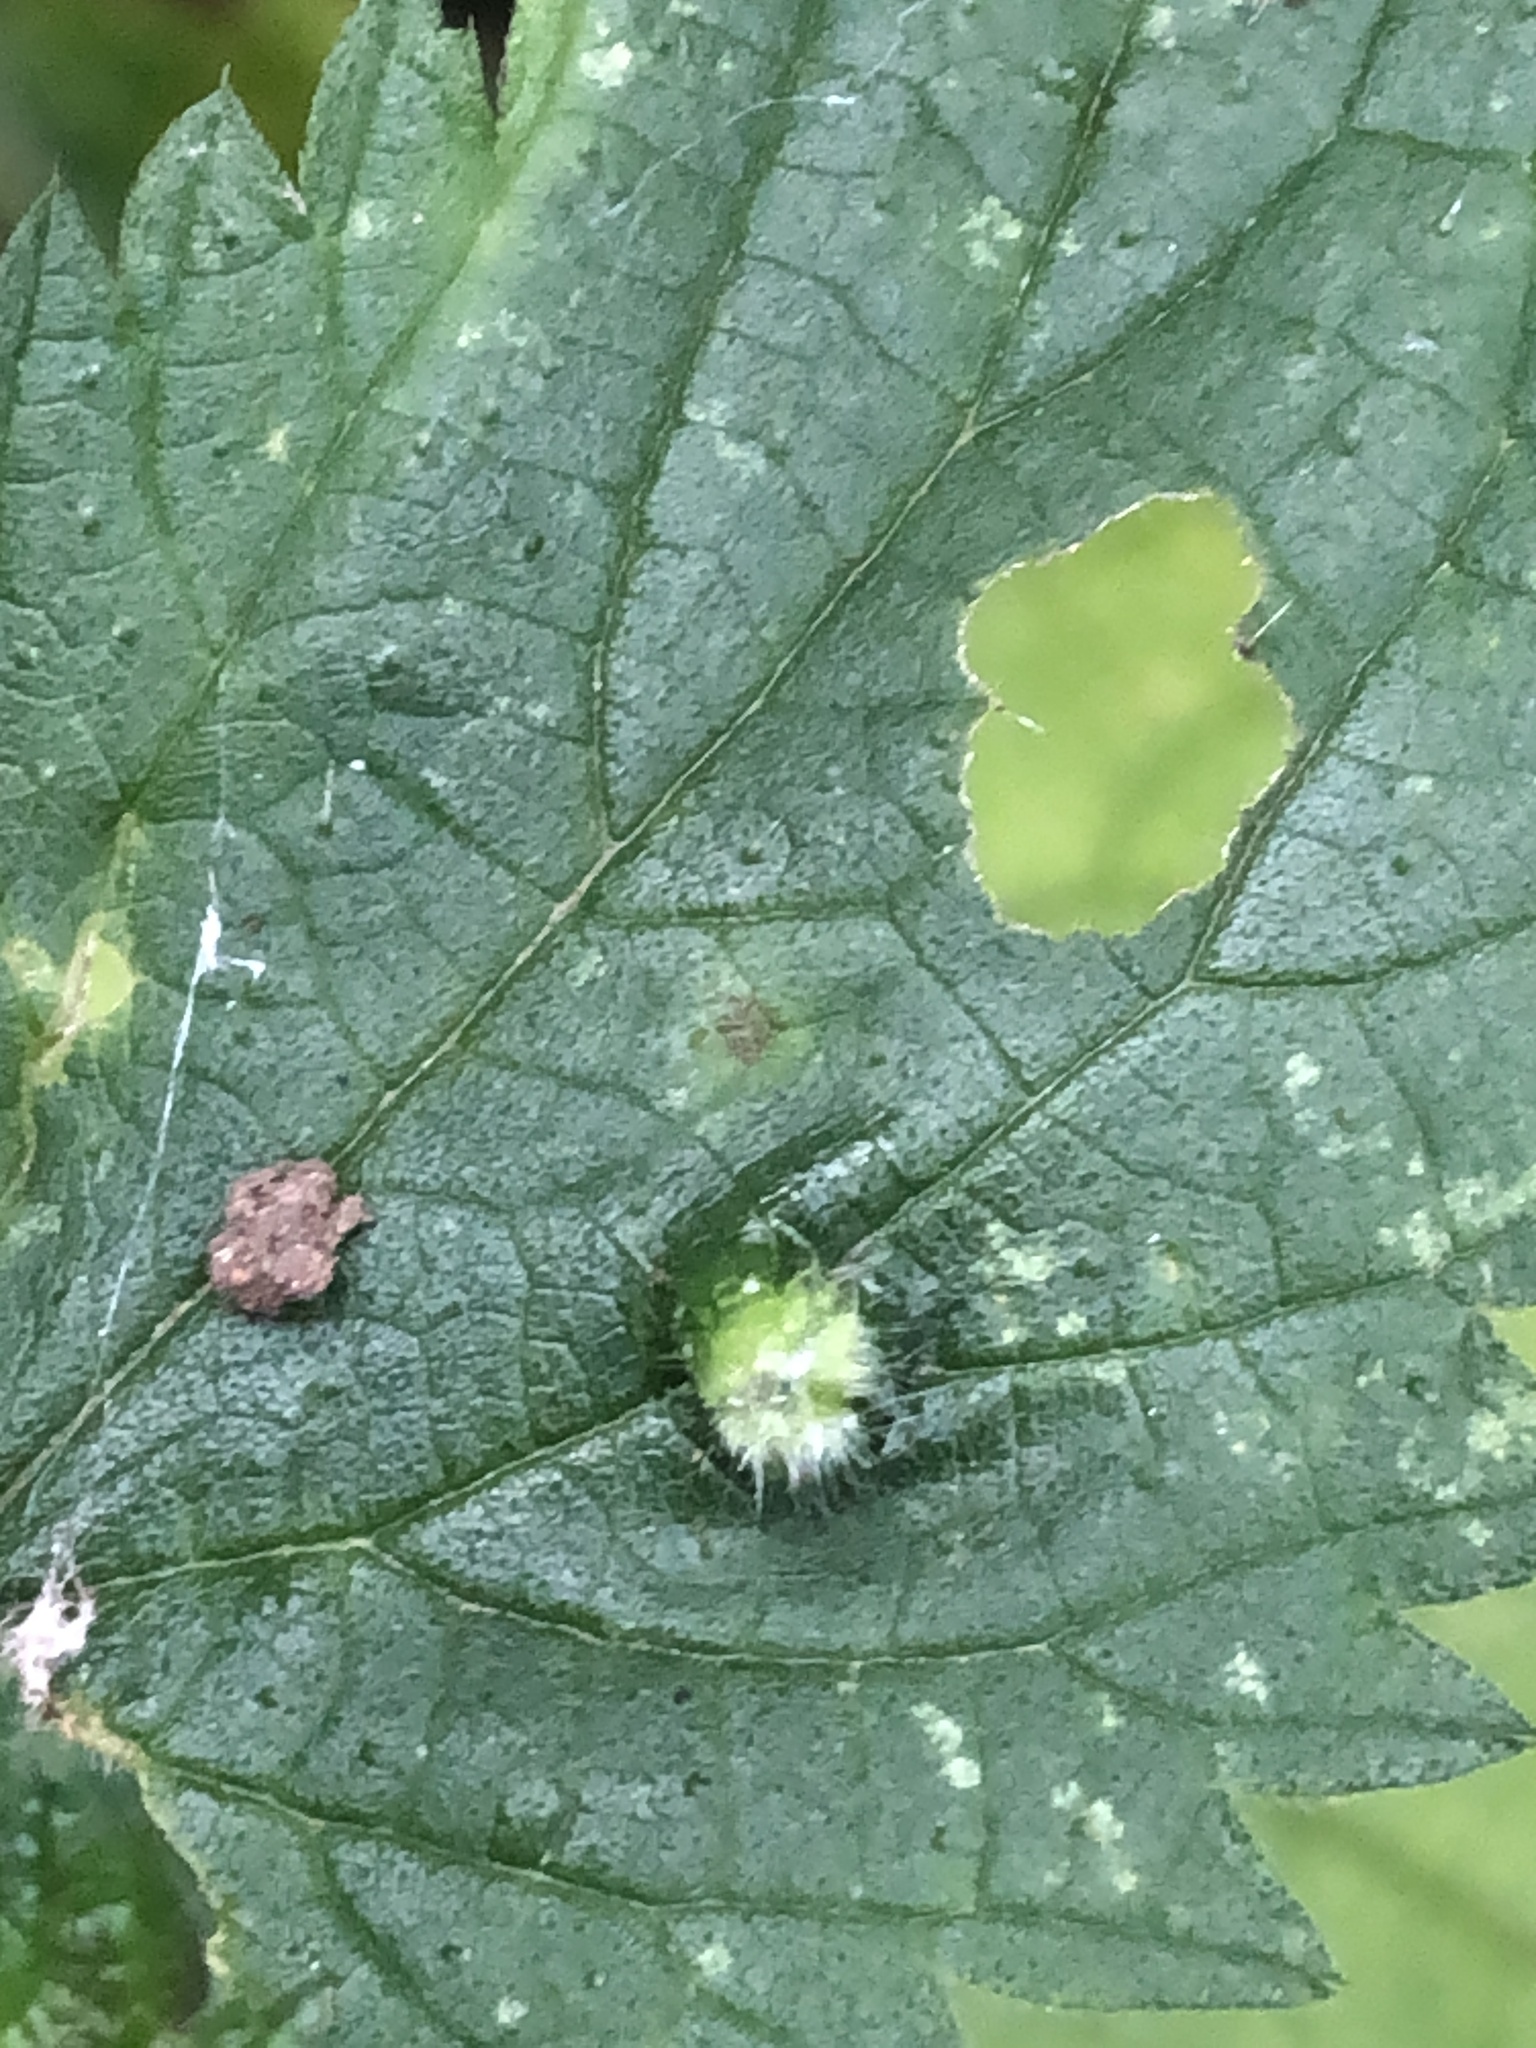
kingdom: Animalia
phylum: Arthropoda
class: Insecta
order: Diptera
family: Cecidomyiidae
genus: Dasineura
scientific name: Dasineura urticae
